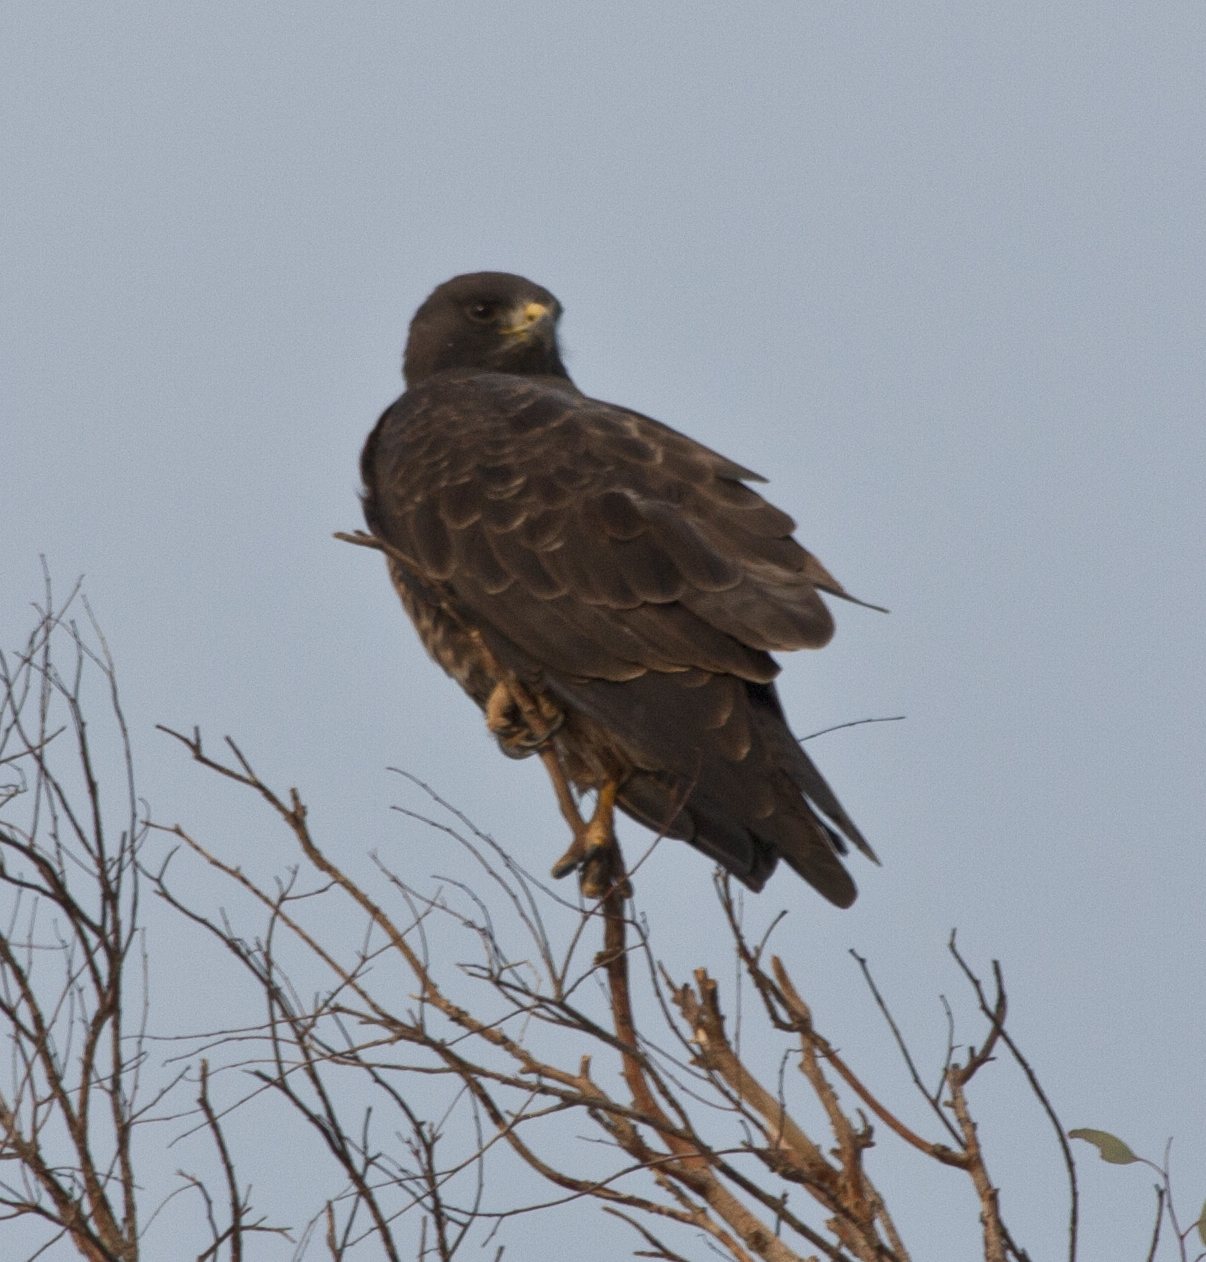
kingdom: Animalia
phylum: Chordata
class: Aves
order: Accipitriformes
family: Accipitridae
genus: Buteo
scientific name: Buteo swainsoni
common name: Swainson's hawk
